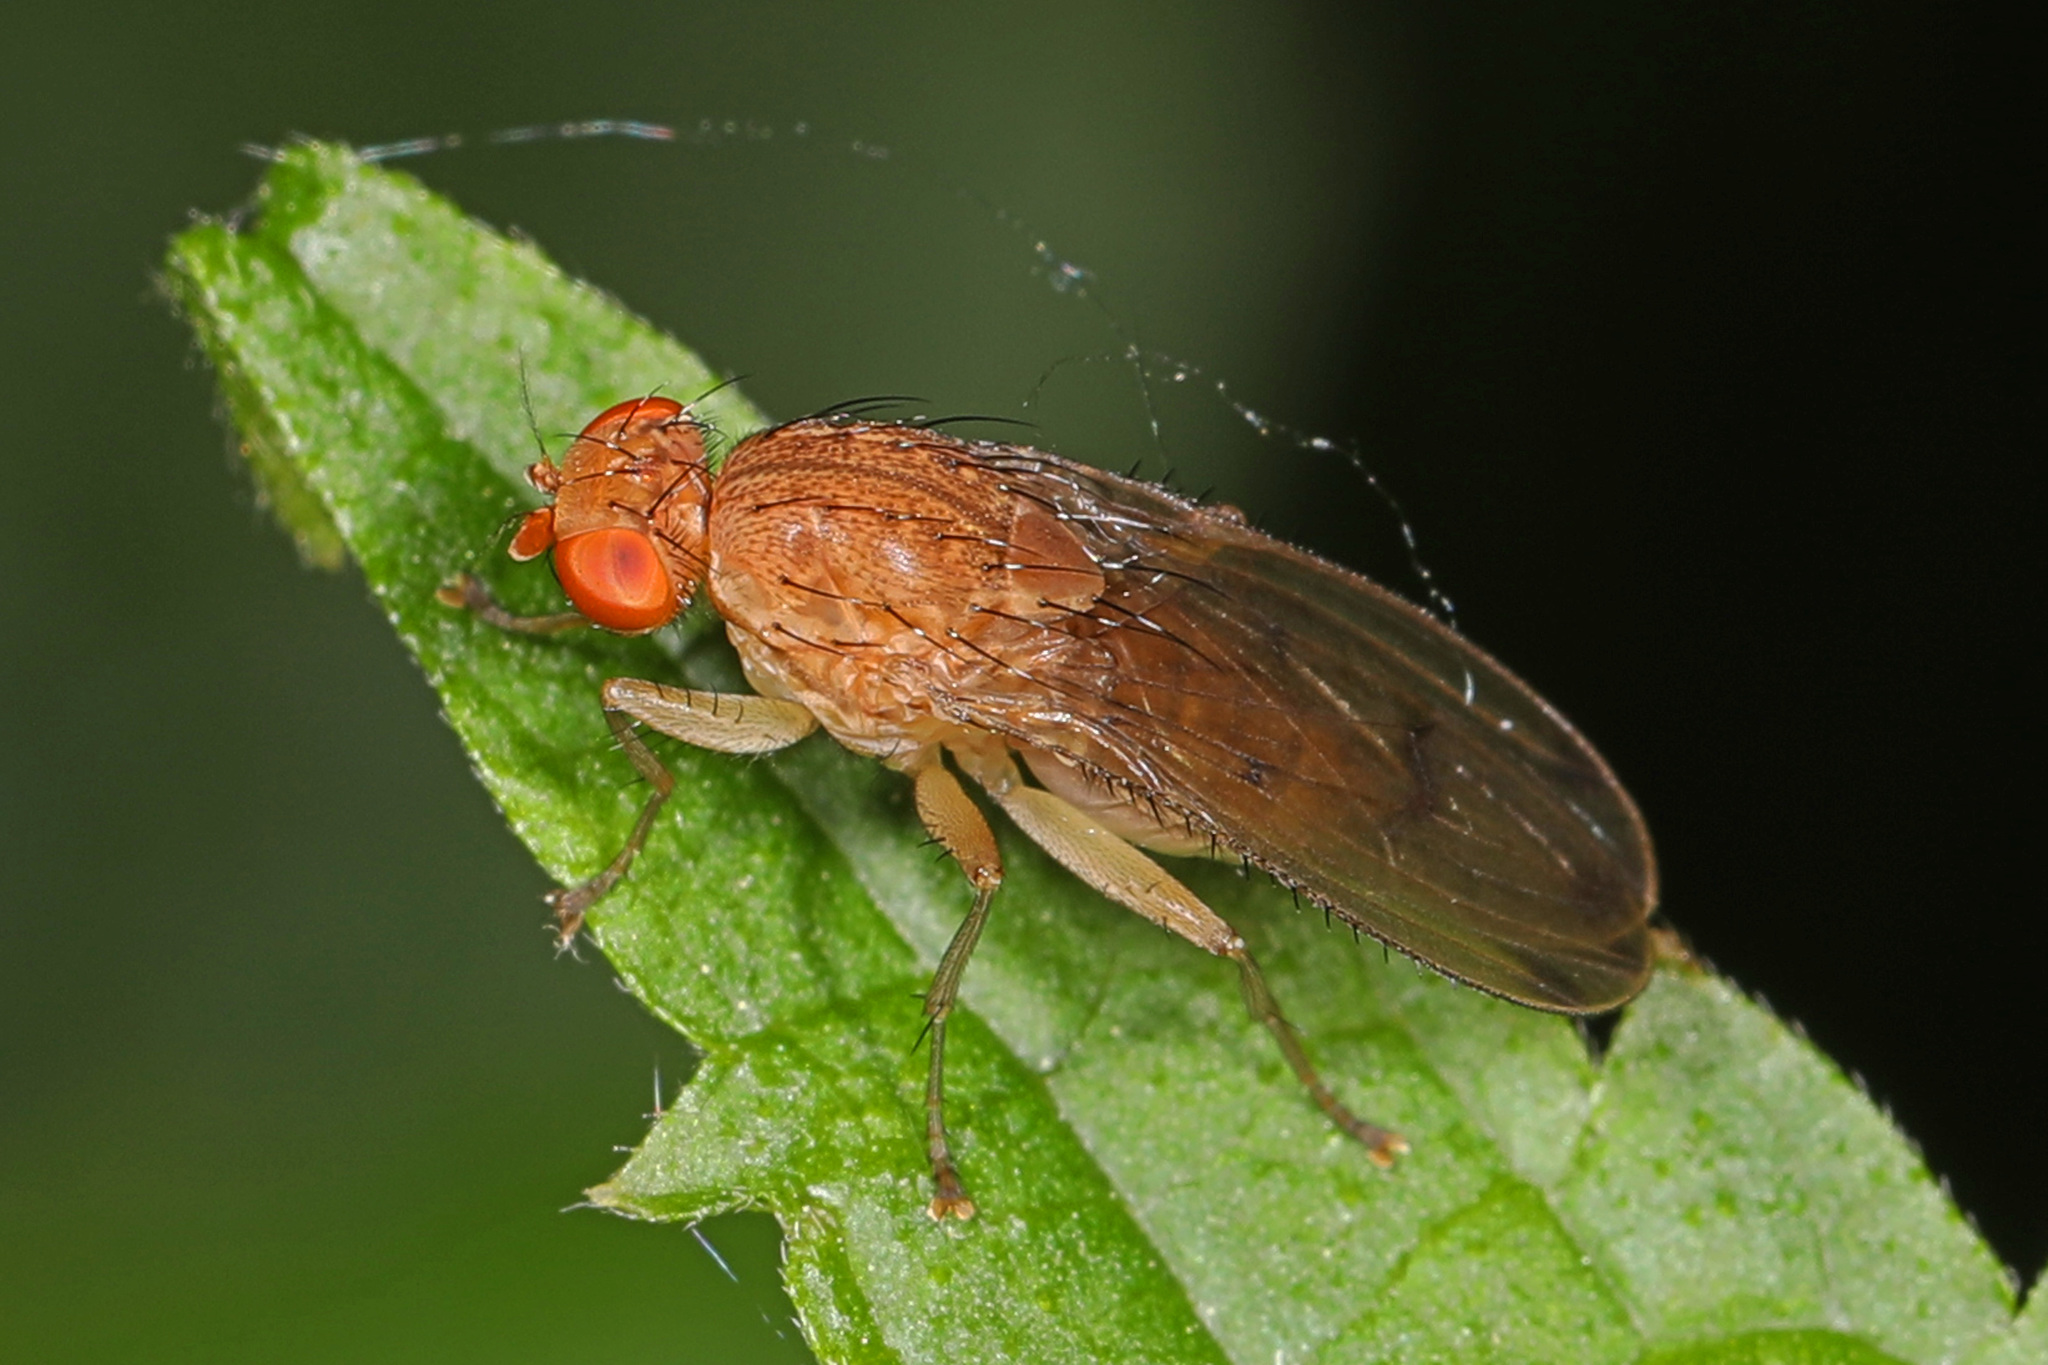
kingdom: Animalia
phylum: Arthropoda
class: Insecta
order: Diptera
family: Heleomyzidae
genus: Suillia
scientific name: Suillia plumata
